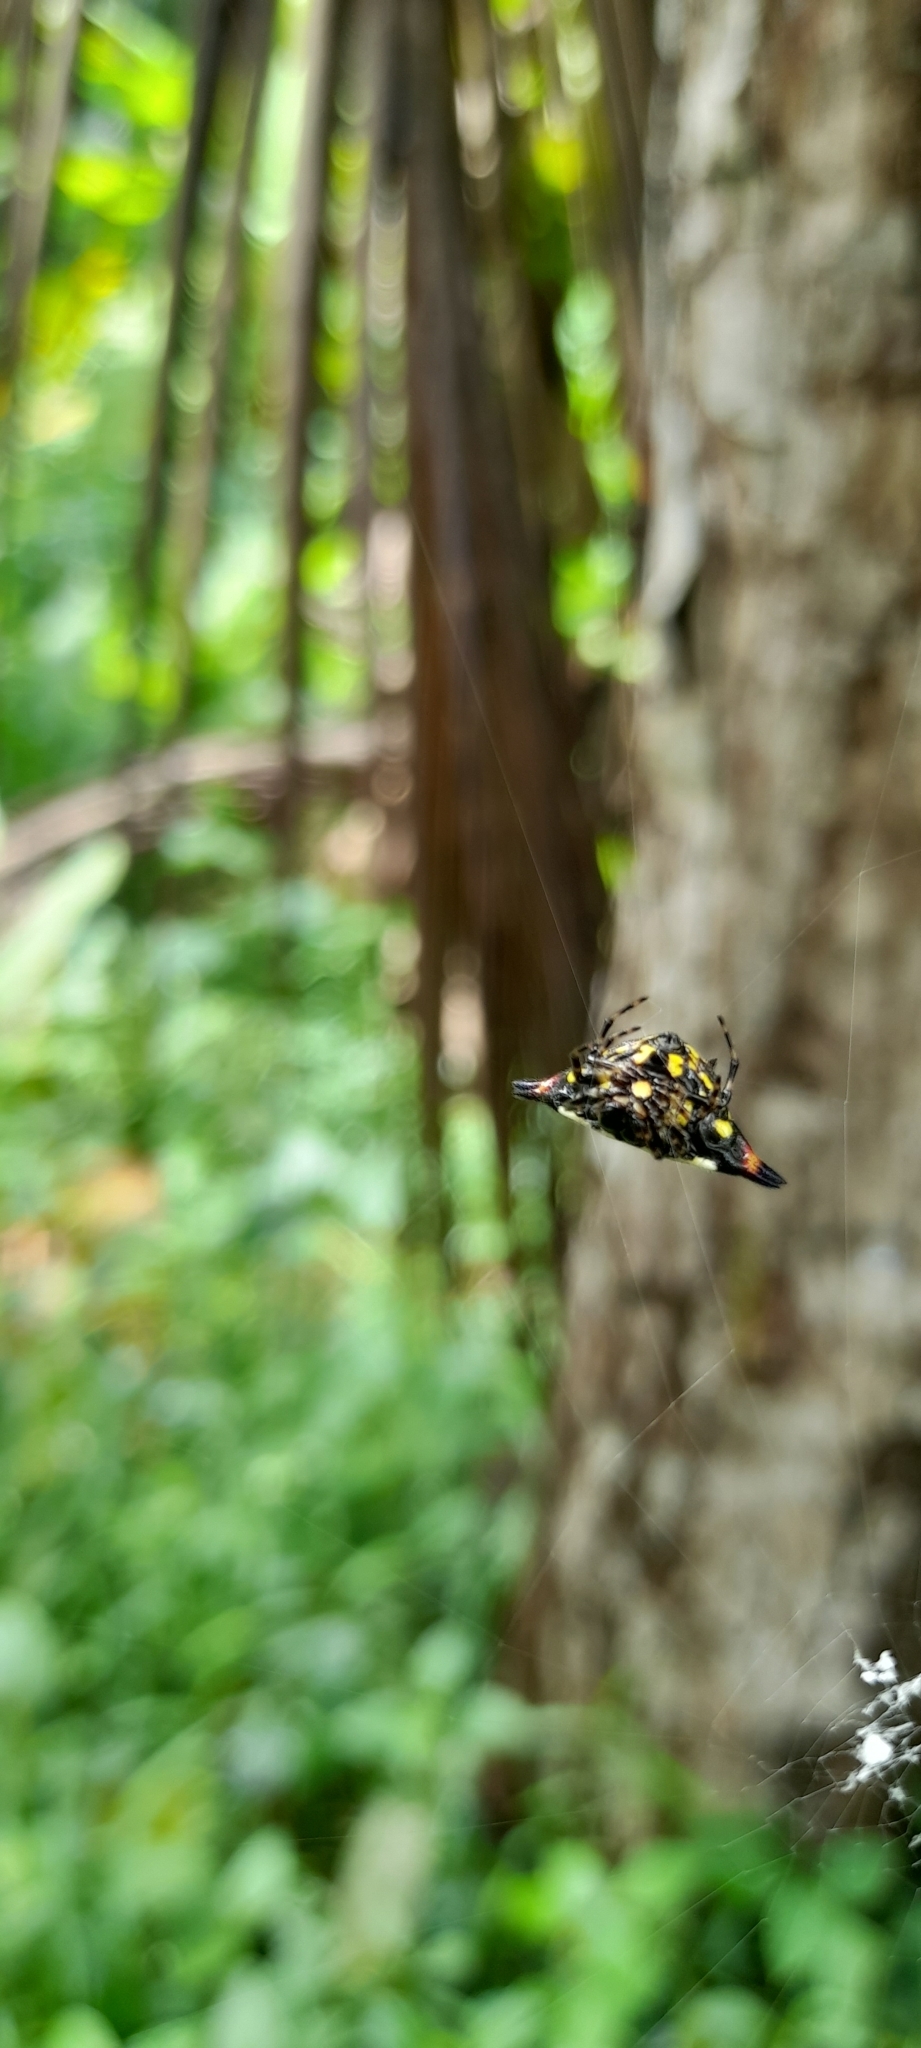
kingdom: Animalia
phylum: Arthropoda
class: Arachnida
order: Araneae
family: Araneidae
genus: Gasteracantha
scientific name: Gasteracantha geminata
